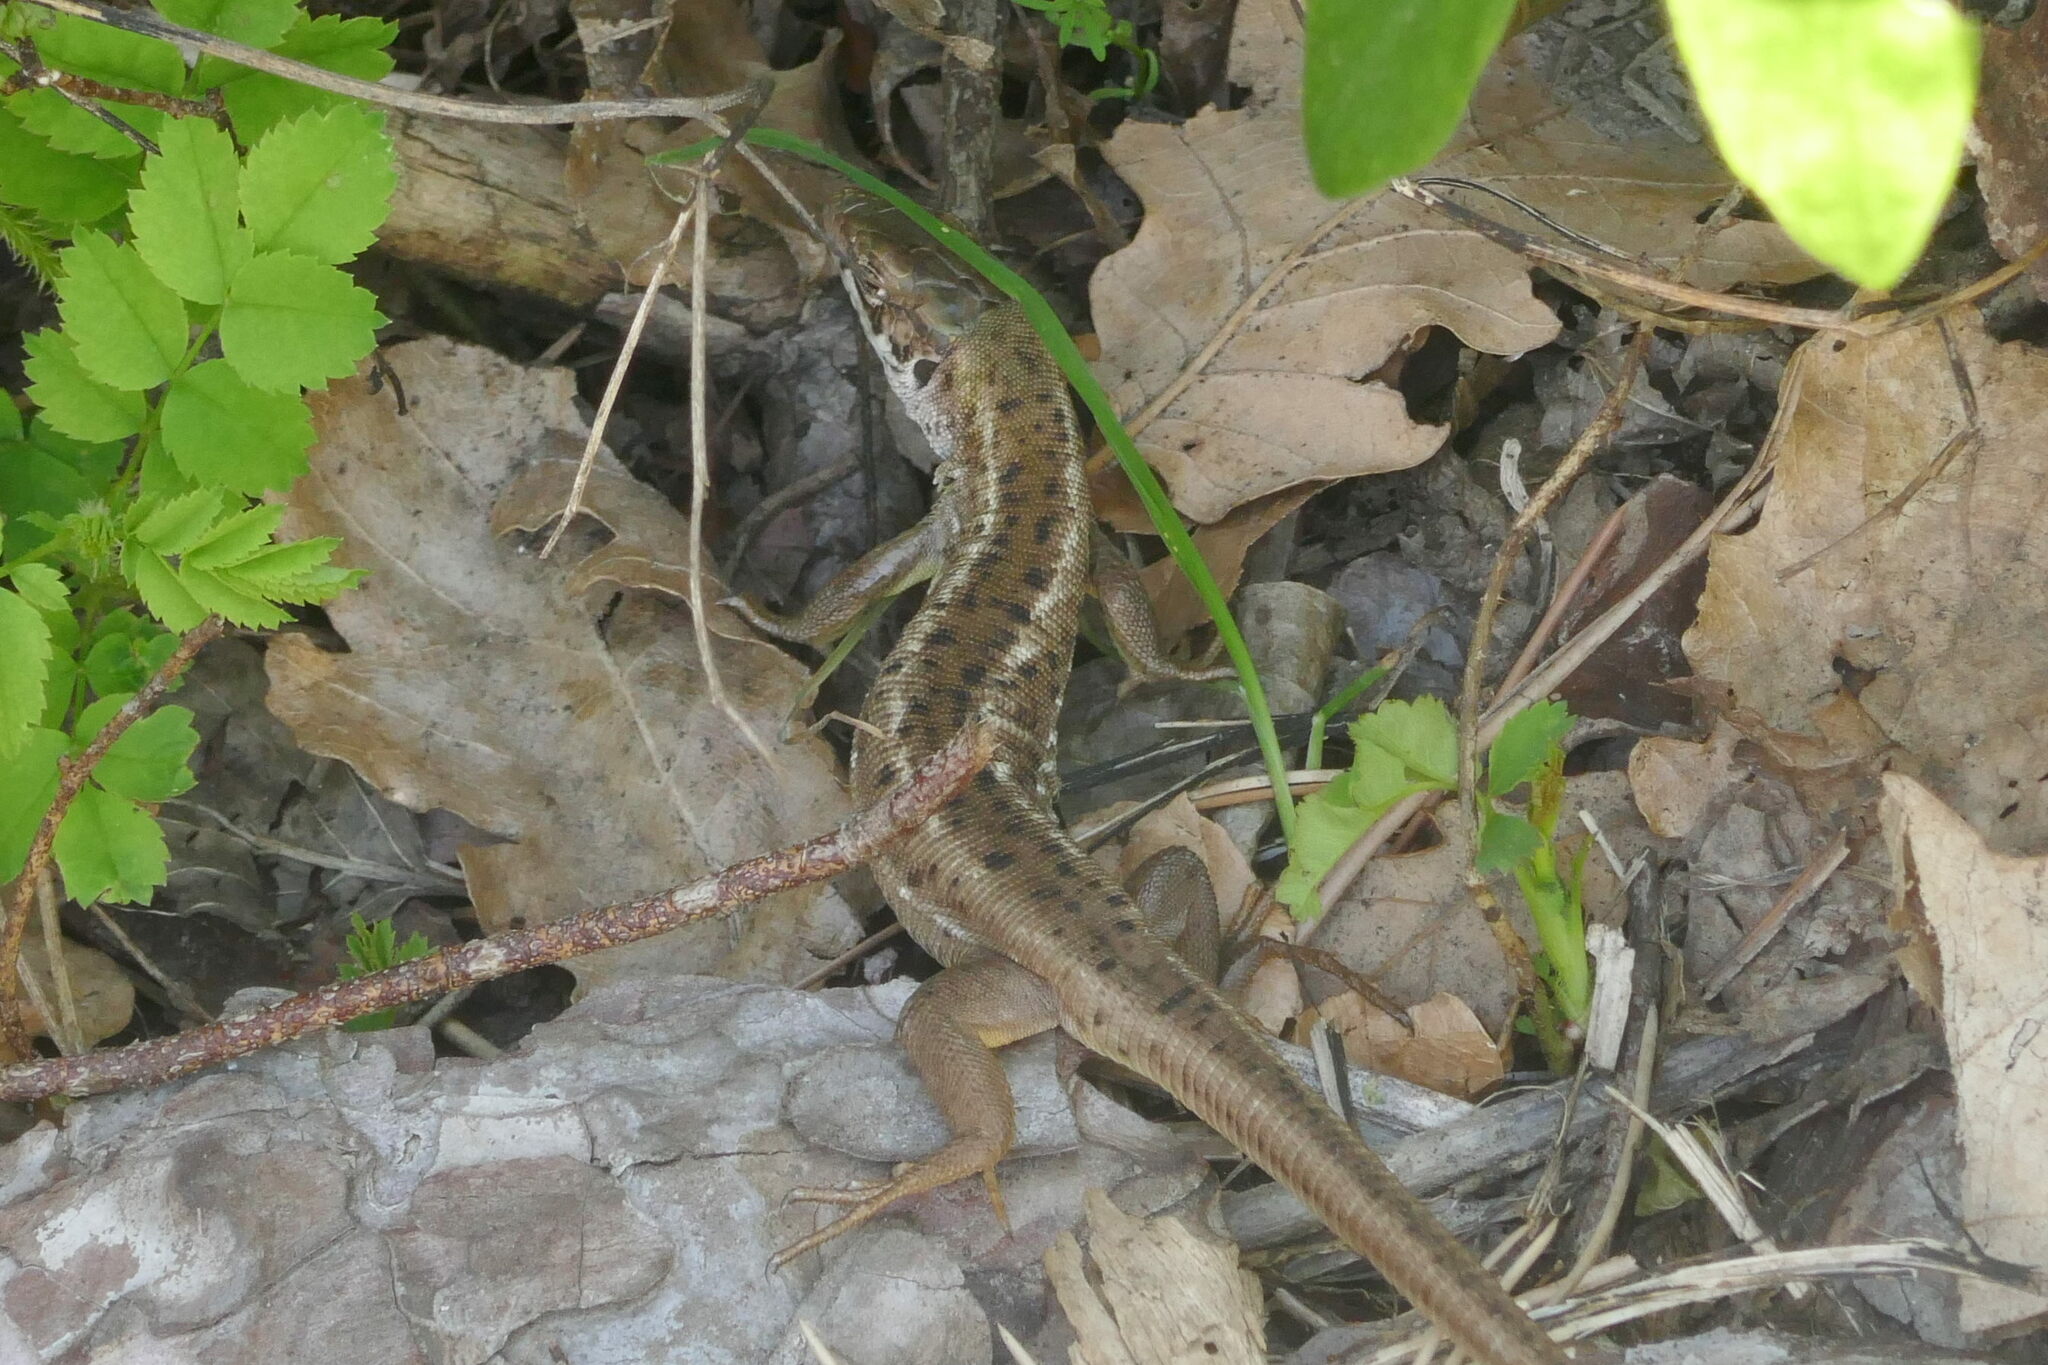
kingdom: Animalia
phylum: Chordata
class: Squamata
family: Lacertidae
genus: Lacerta
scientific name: Lacerta viridis
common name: European green lizard
